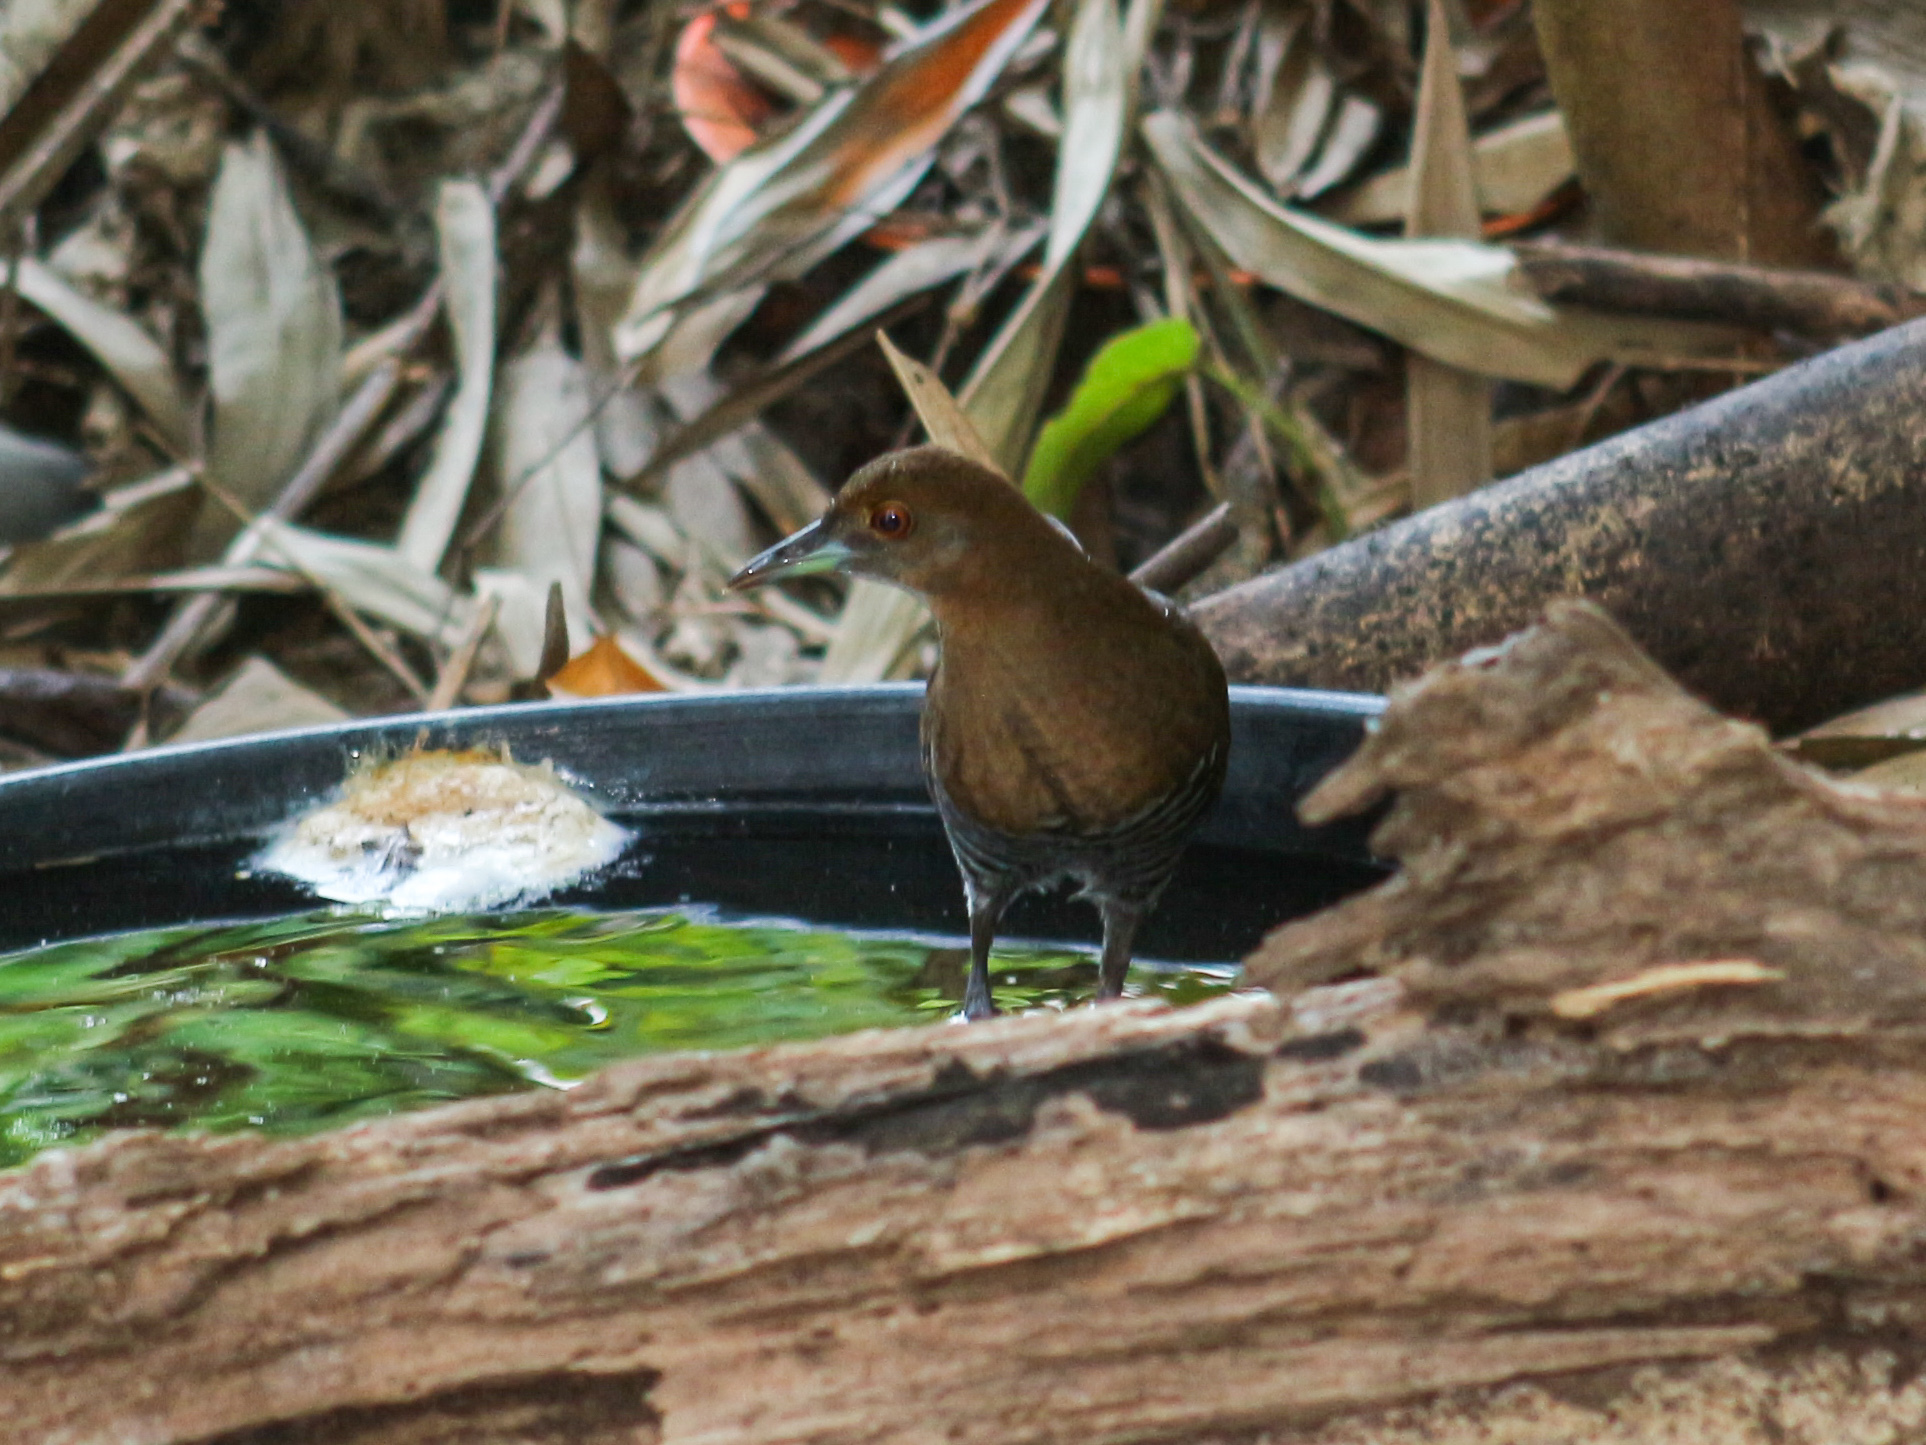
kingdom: Animalia
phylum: Chordata
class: Aves
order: Gruiformes
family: Rallidae
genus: Rallina
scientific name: Rallina eurizonoides
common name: Slaty-legged crake
